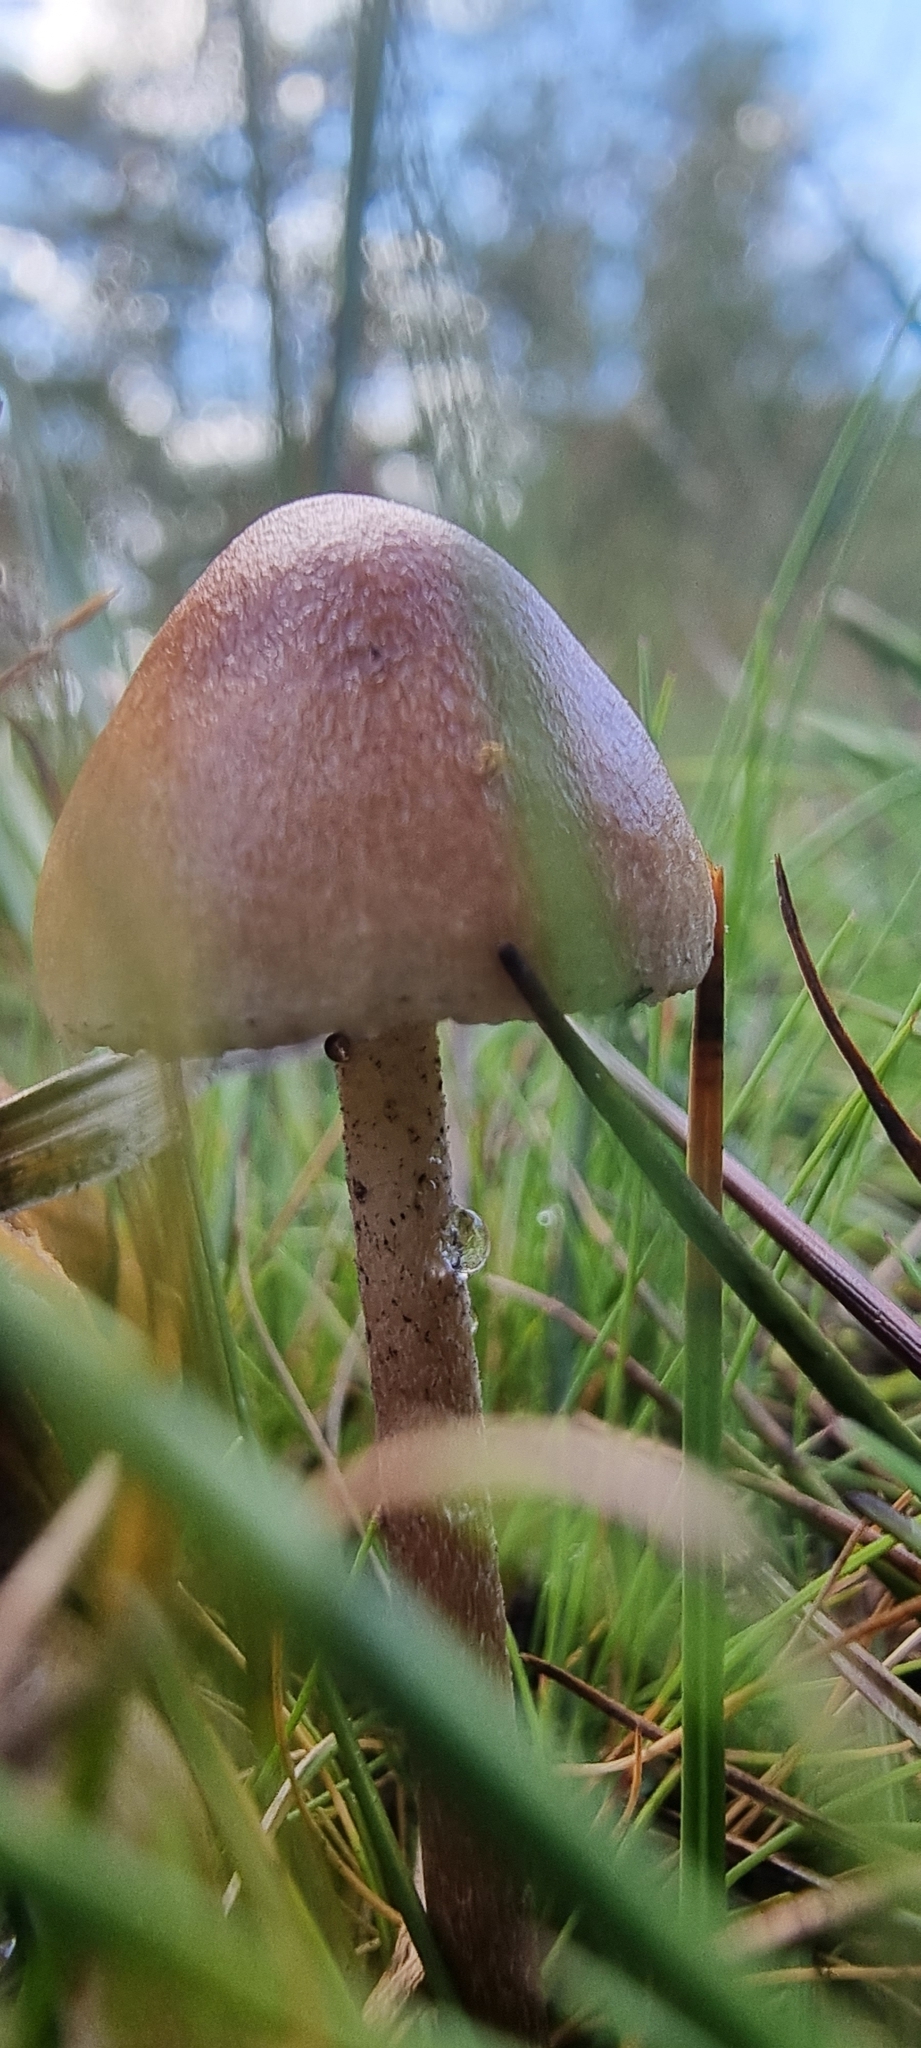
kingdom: Fungi
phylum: Basidiomycota
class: Agaricomycetes
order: Agaricales
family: Bolbitiaceae
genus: Panaeolus
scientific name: Panaeolus semiovatus
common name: Shiny mottlegill
